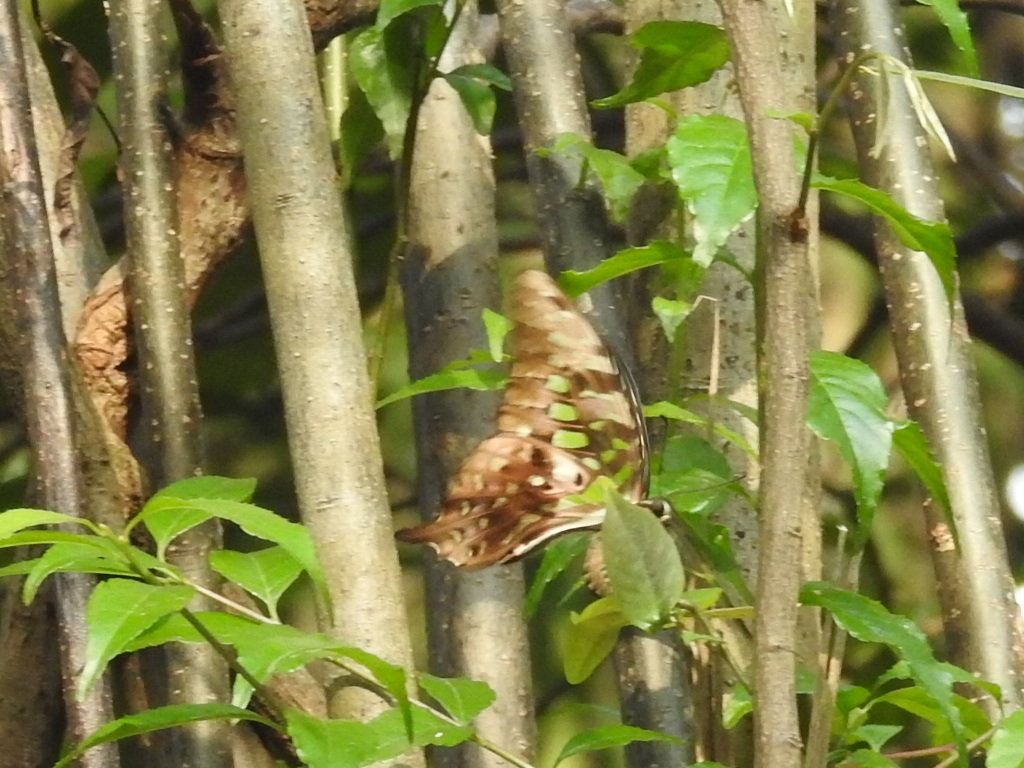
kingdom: Animalia
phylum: Arthropoda
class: Insecta
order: Lepidoptera
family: Papilionidae
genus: Graphium
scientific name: Graphium agamemnon
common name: Tailed jay
